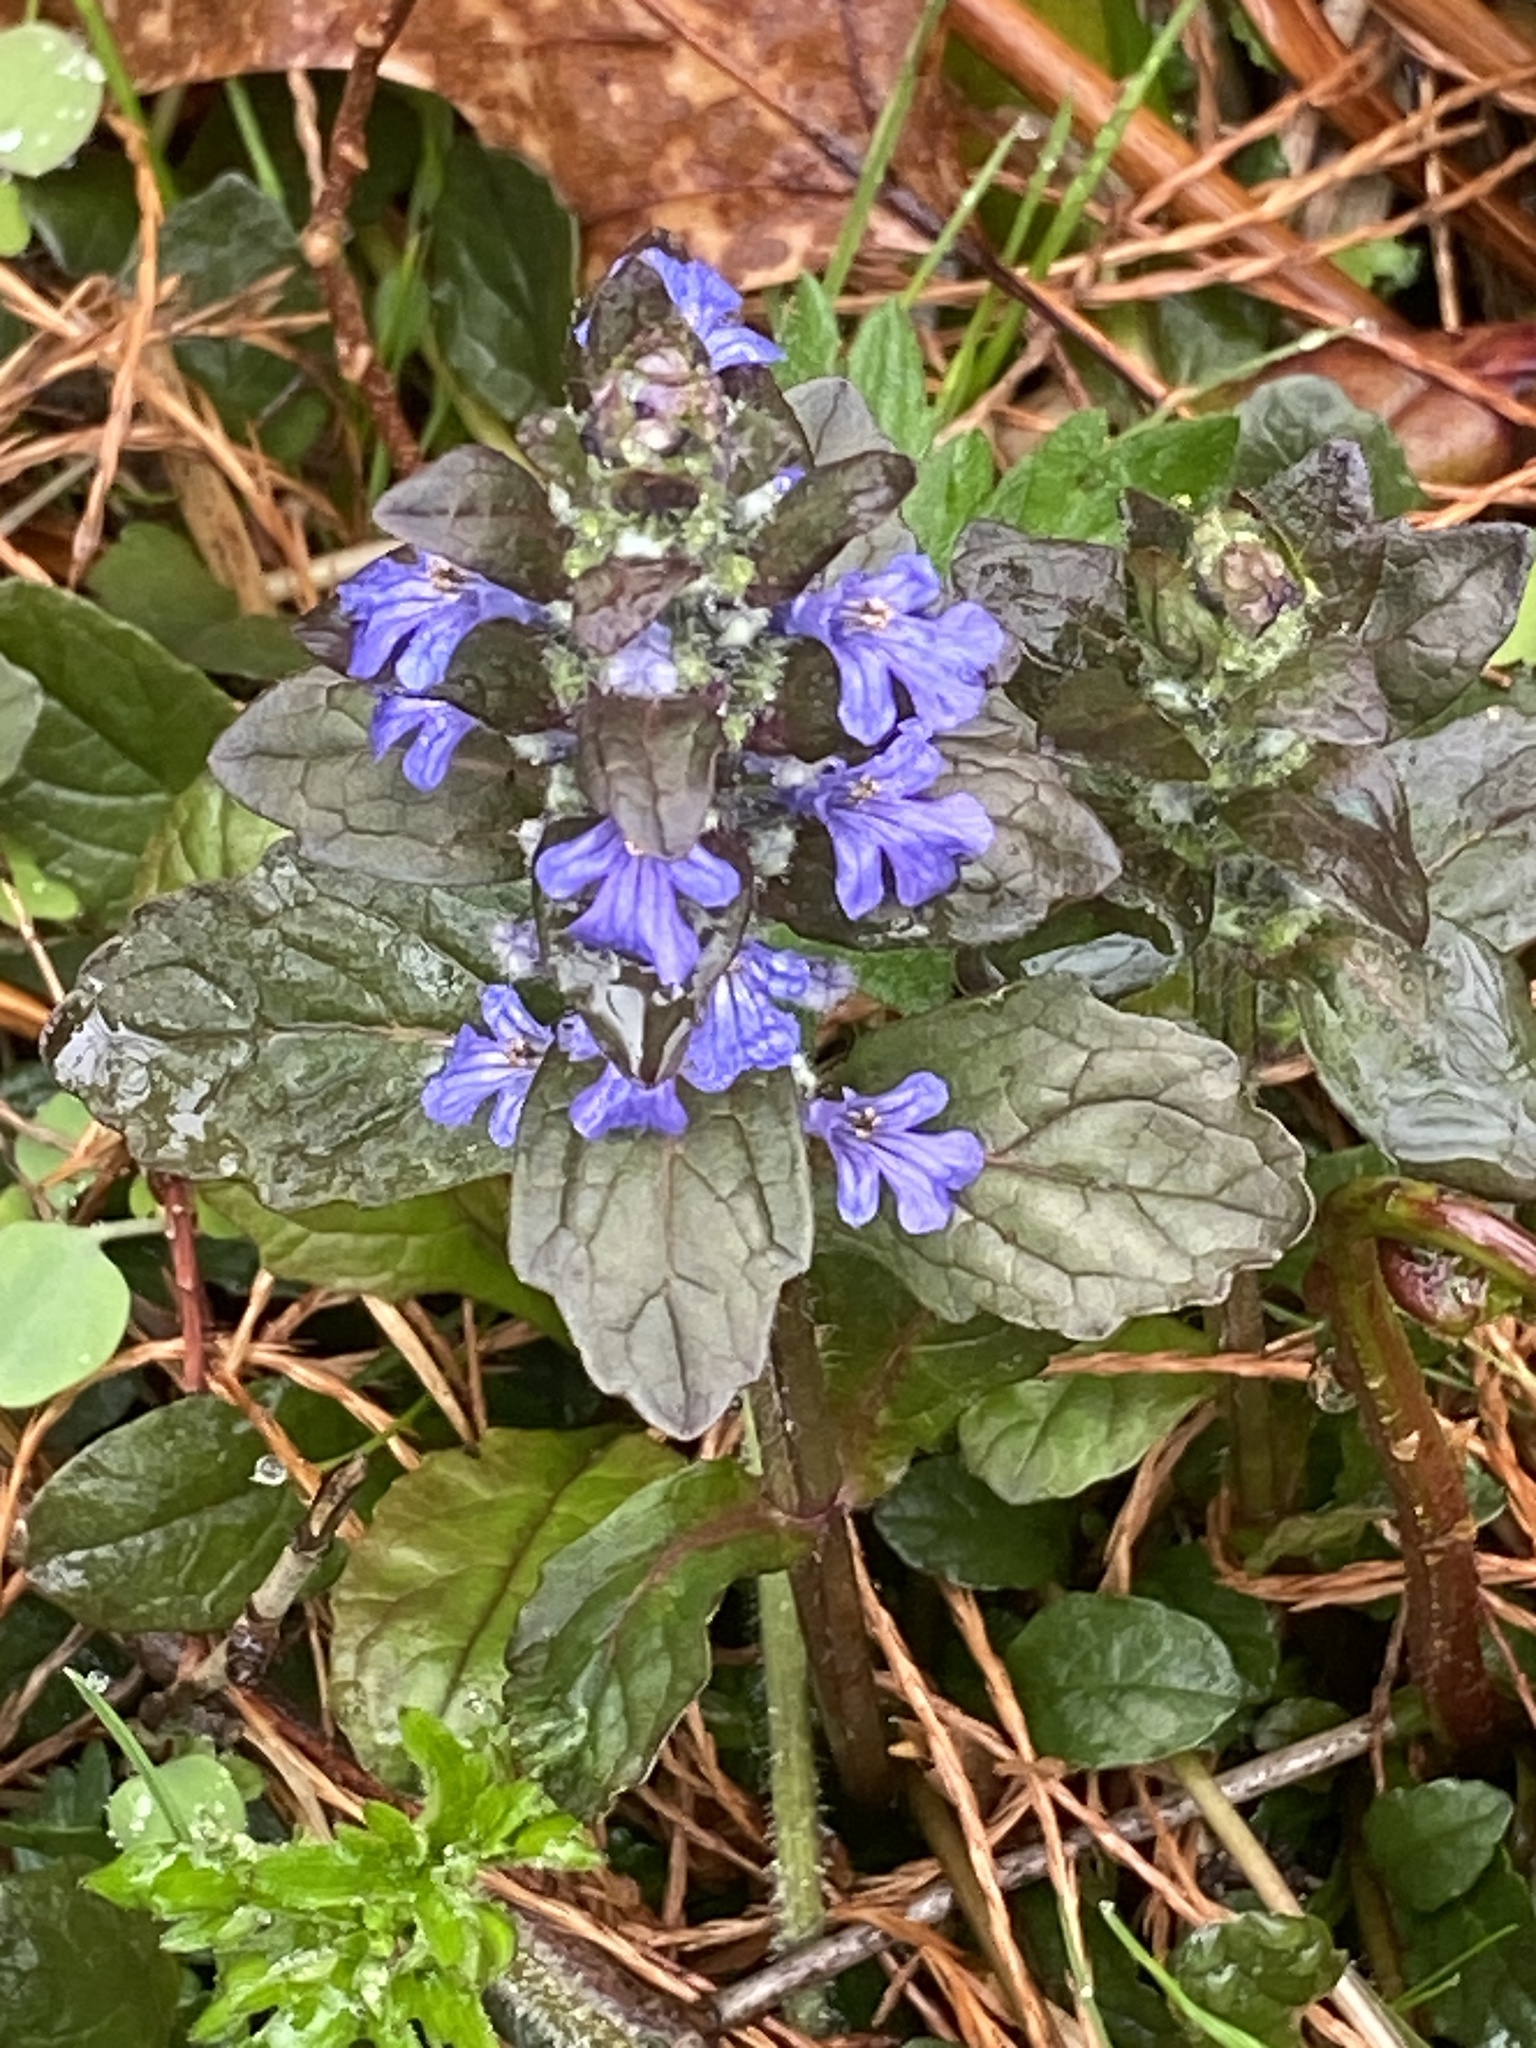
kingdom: Plantae
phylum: Tracheophyta
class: Magnoliopsida
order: Lamiales
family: Lamiaceae
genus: Ajuga
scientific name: Ajuga reptans
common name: Bugle
